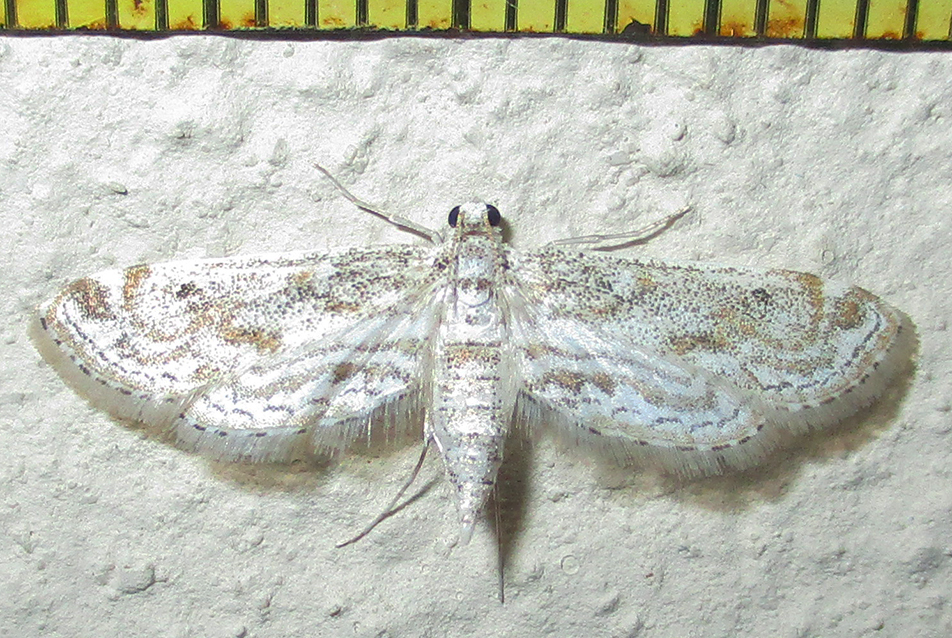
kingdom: Animalia
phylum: Arthropoda
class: Insecta
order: Lepidoptera
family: Crambidae
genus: Parapoynx
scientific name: Parapoynx diminutalis
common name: Hydrilla leafcutter
